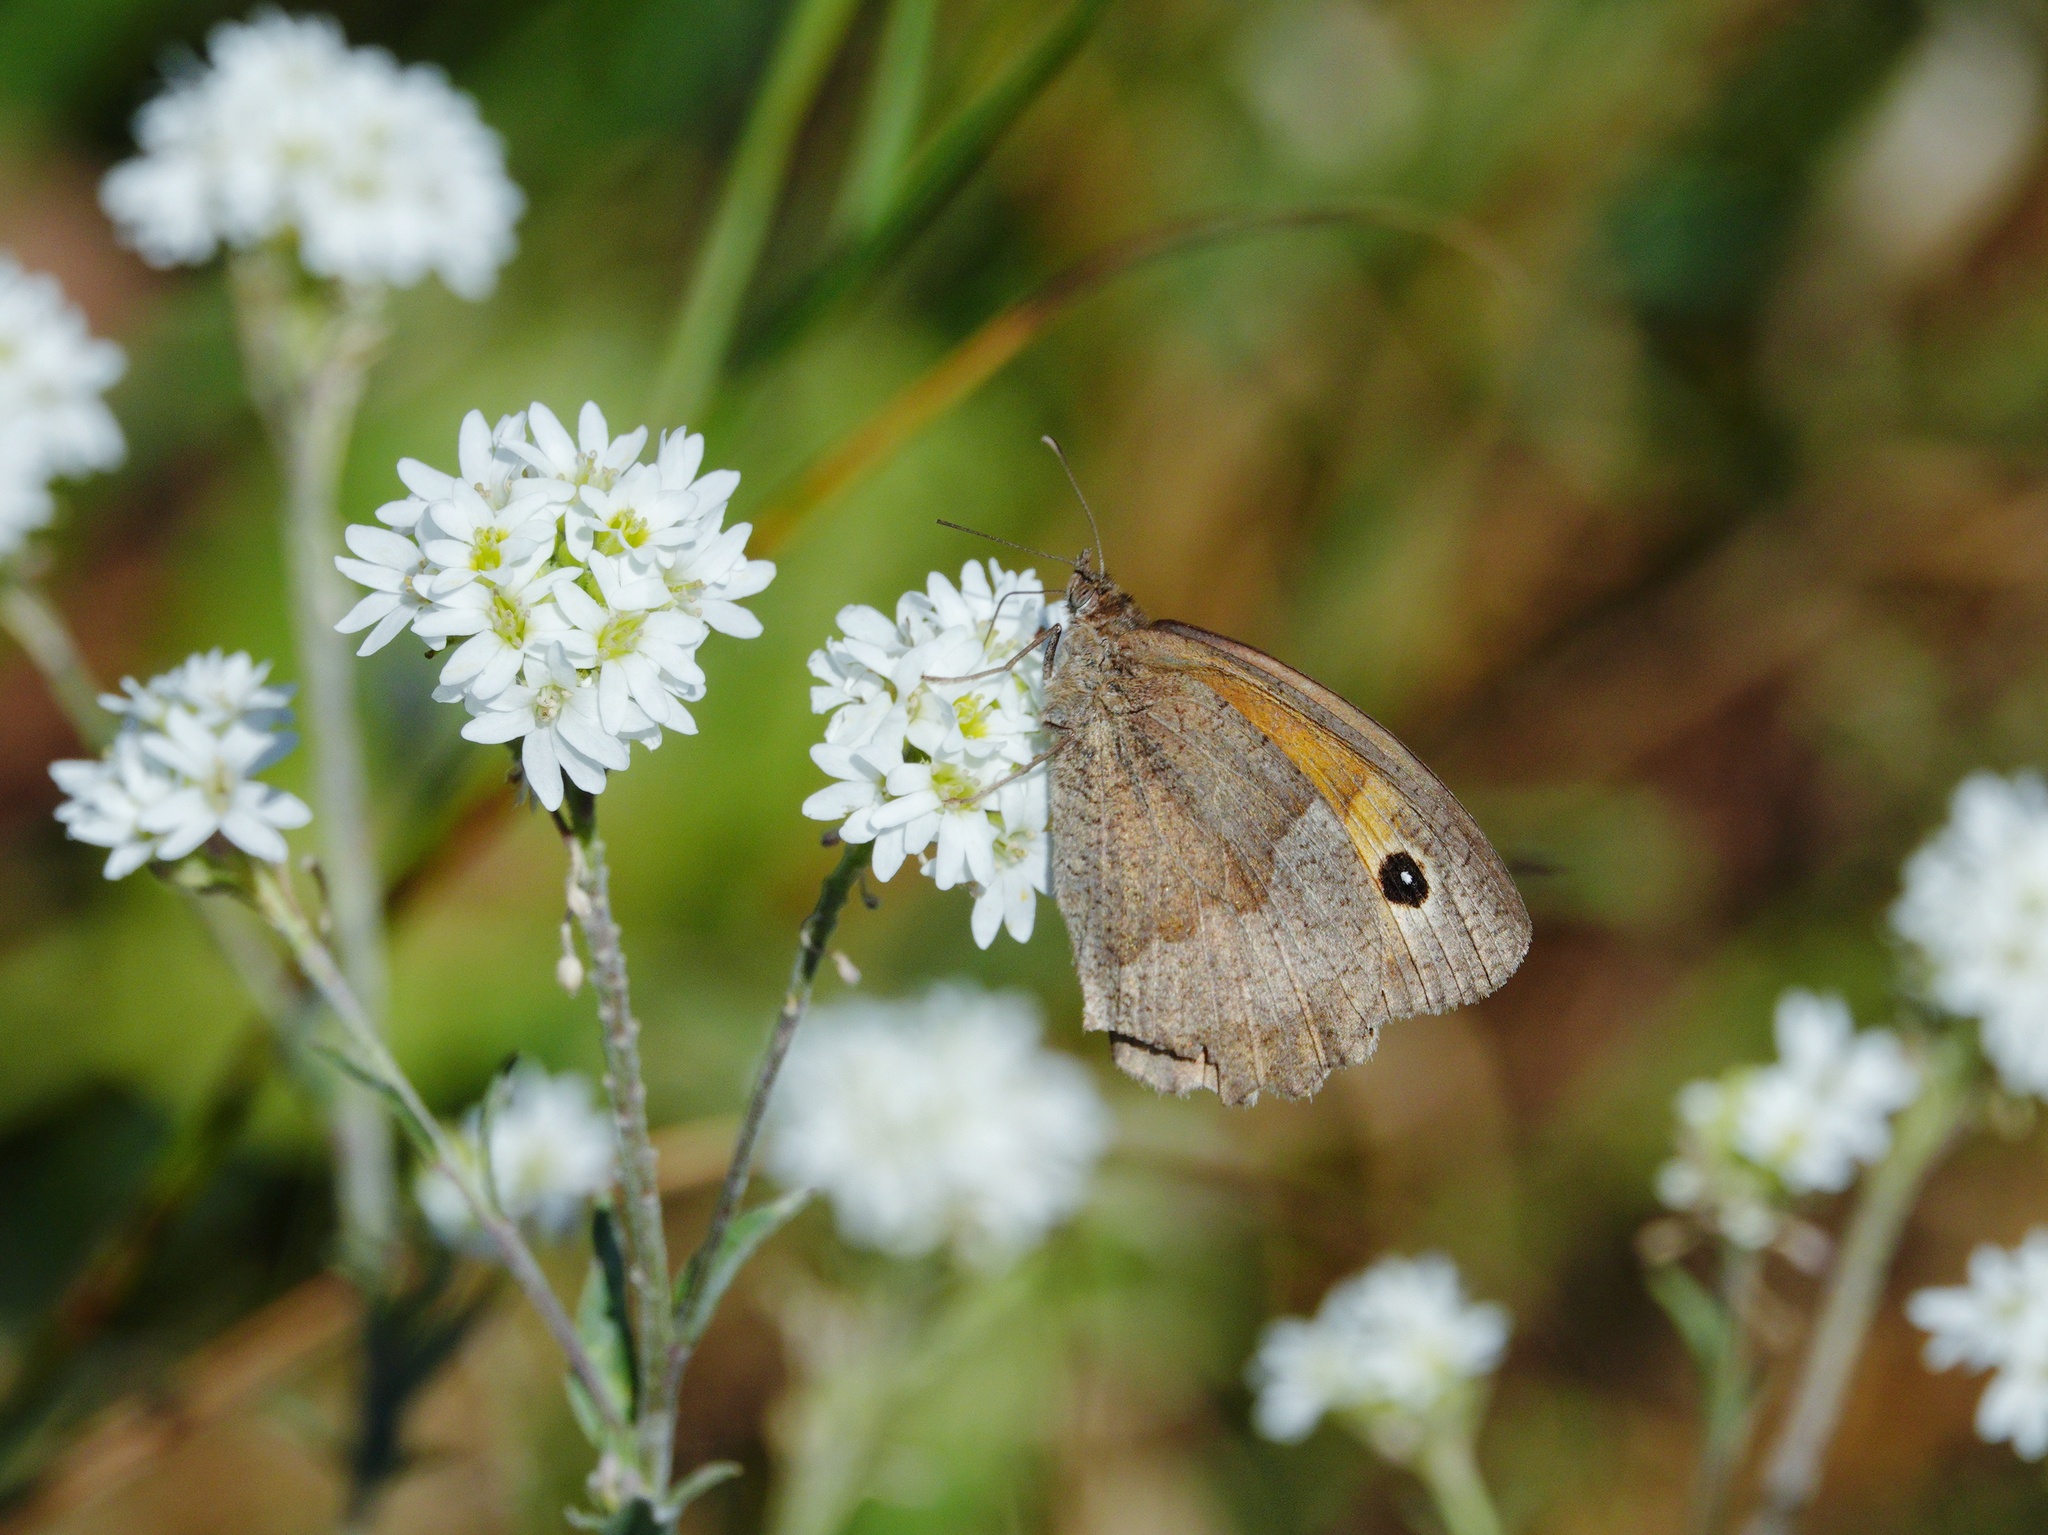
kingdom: Animalia
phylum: Arthropoda
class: Insecta
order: Lepidoptera
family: Nymphalidae
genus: Maniola
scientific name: Maniola jurtina
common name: Meadow brown
